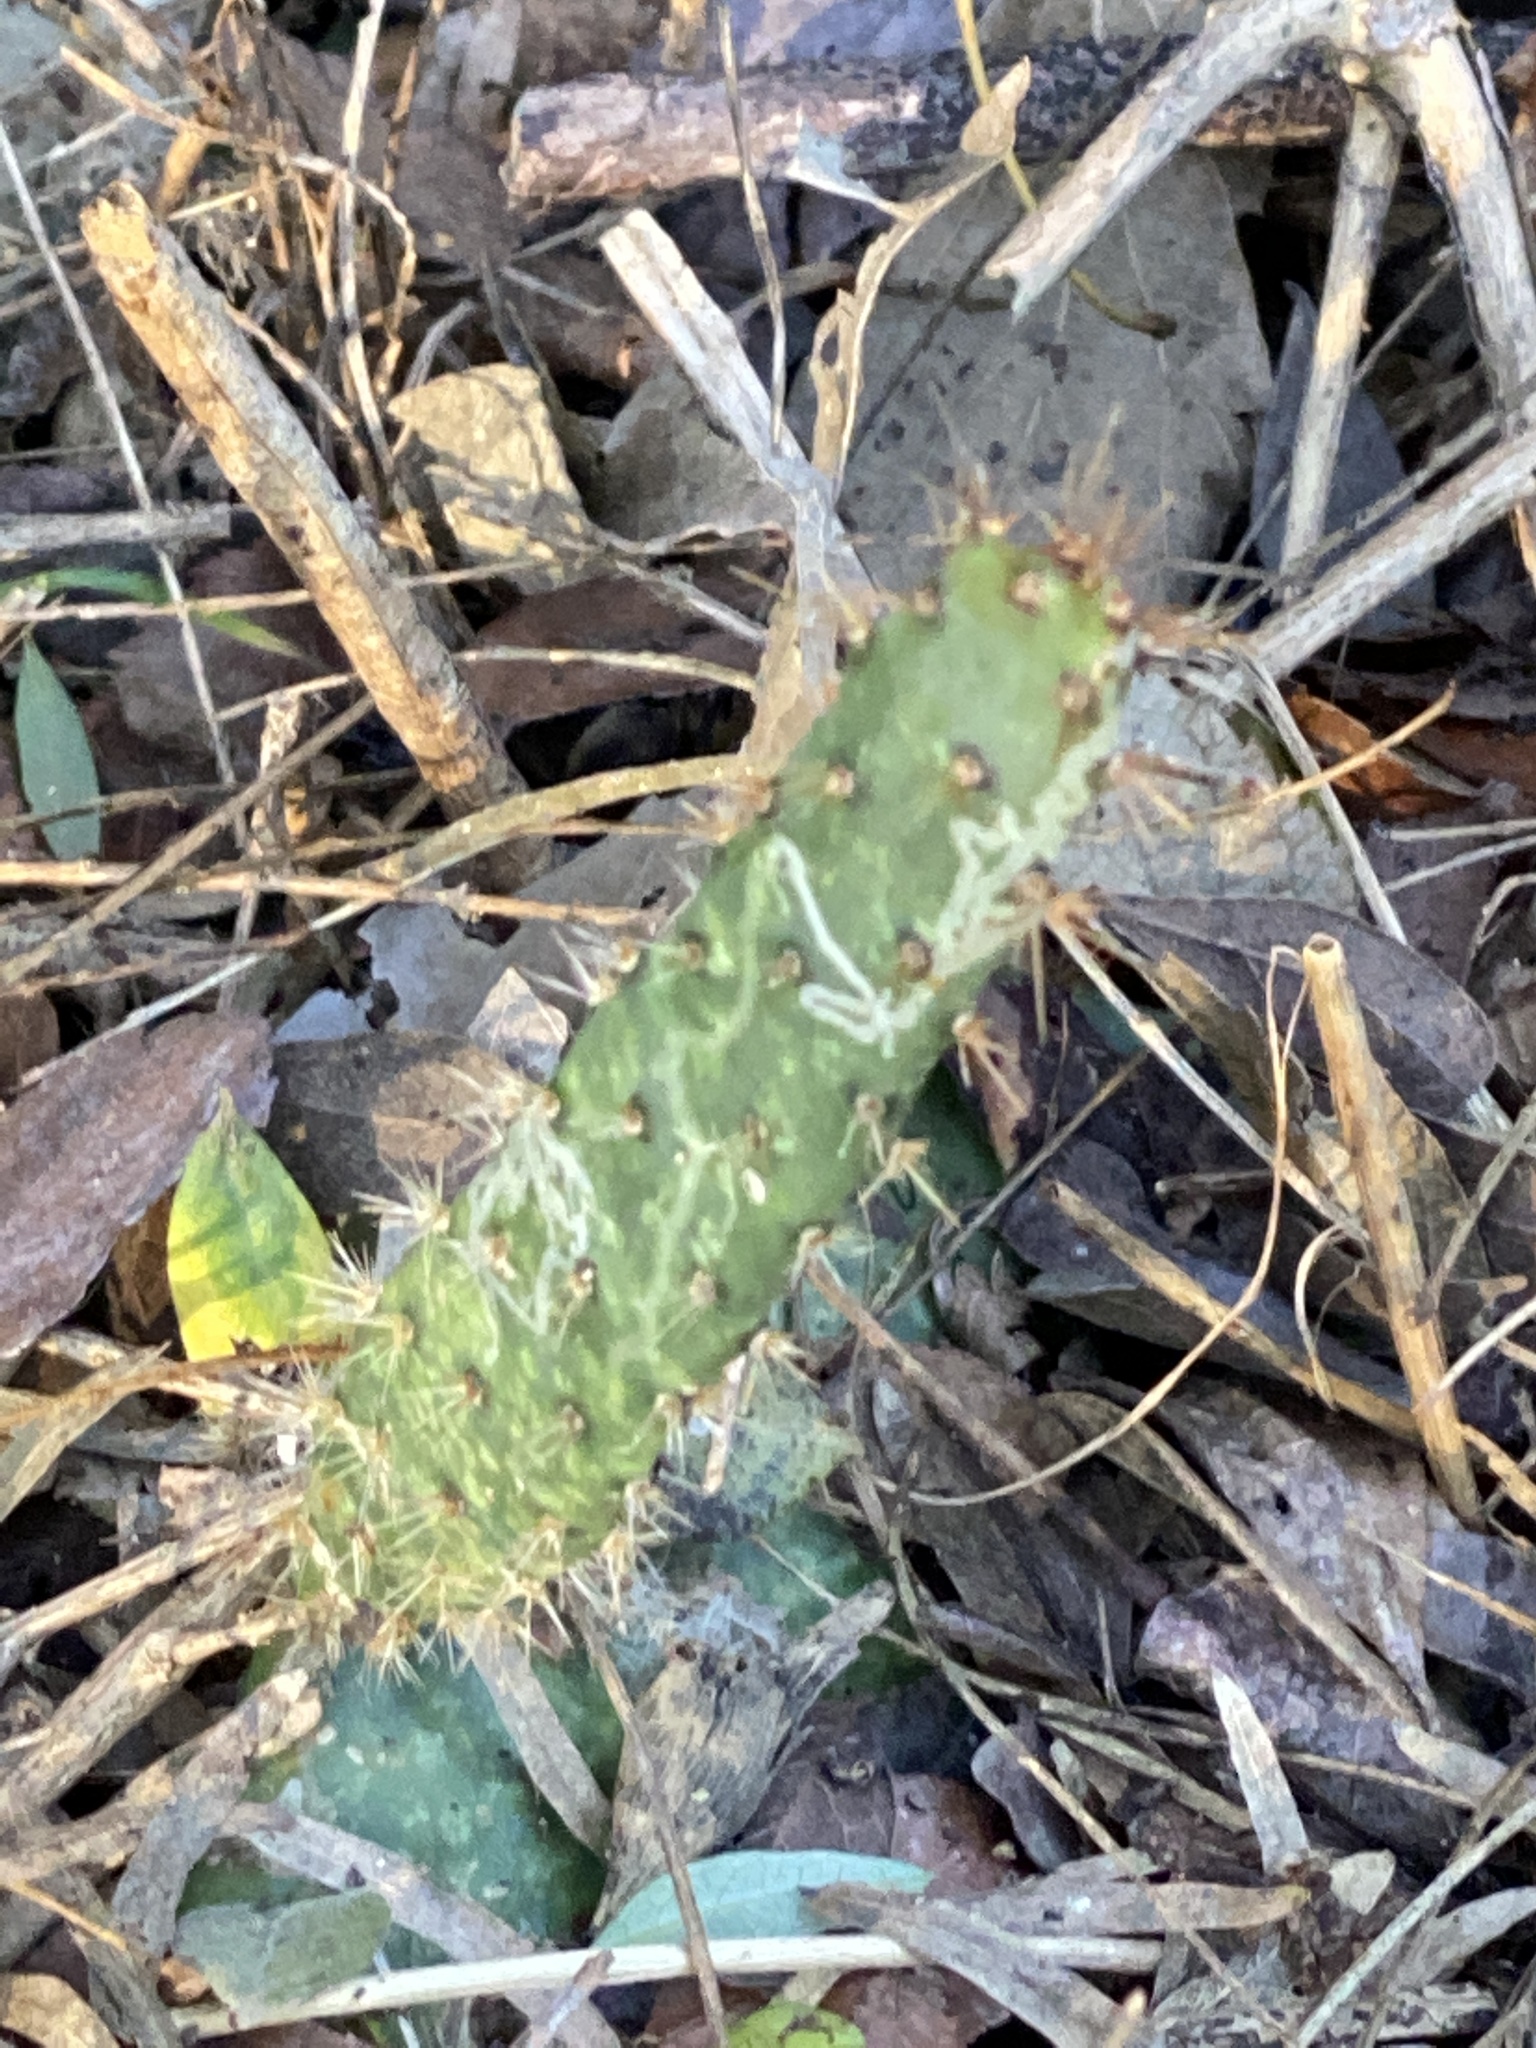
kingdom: Plantae
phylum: Tracheophyta
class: Magnoliopsida
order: Caryophyllales
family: Cactaceae
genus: Opuntia
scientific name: Opuntia engelmannii
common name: Cactus-apple
